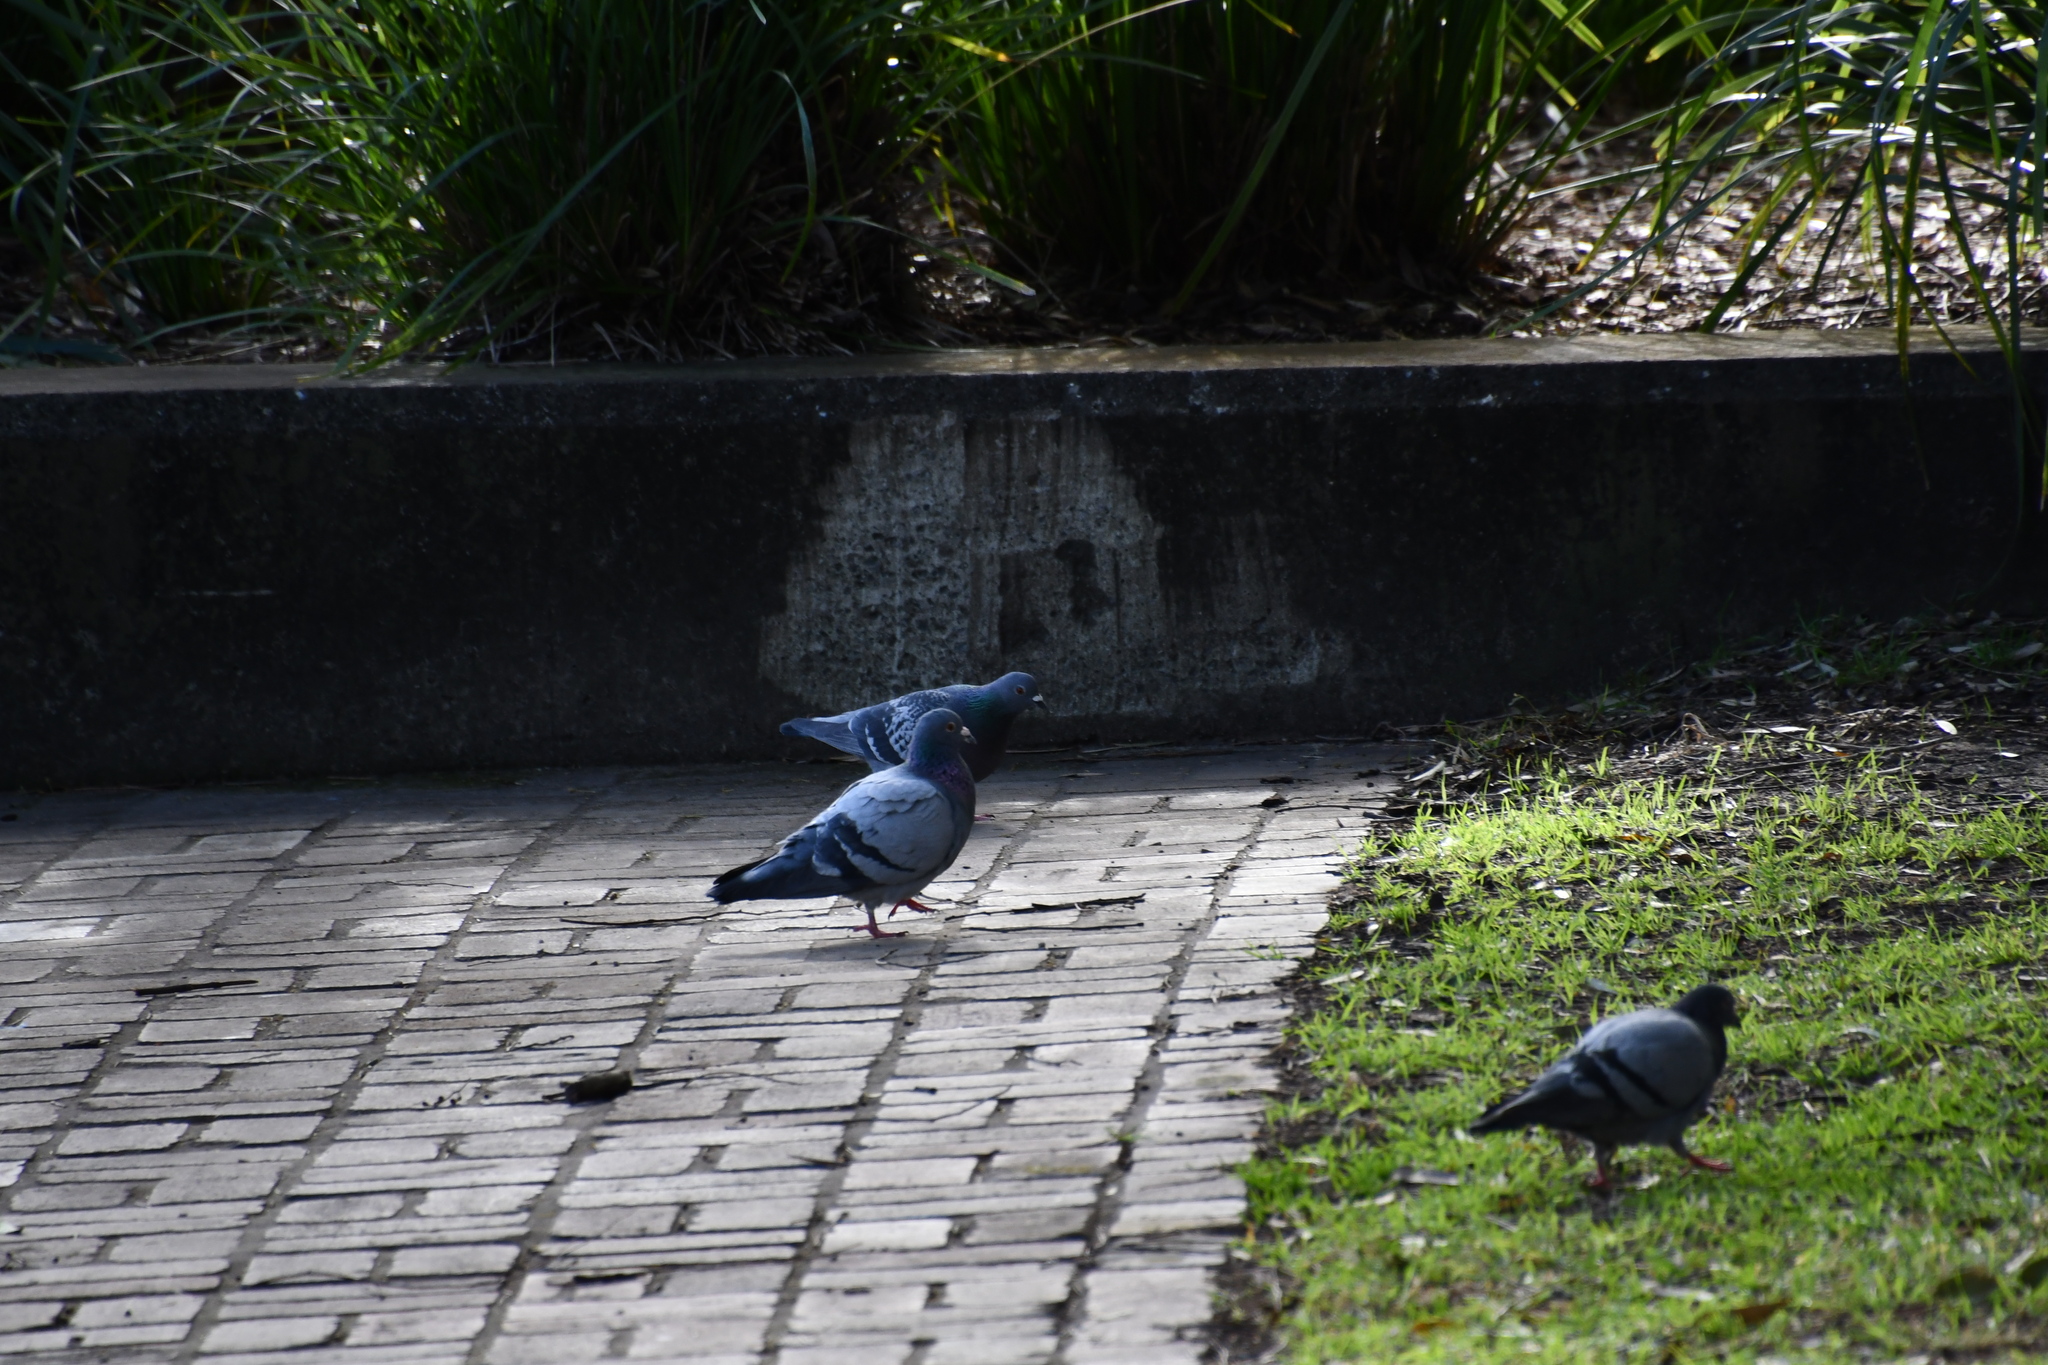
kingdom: Animalia
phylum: Chordata
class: Aves
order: Columbiformes
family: Columbidae
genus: Columba
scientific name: Columba livia
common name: Rock pigeon
